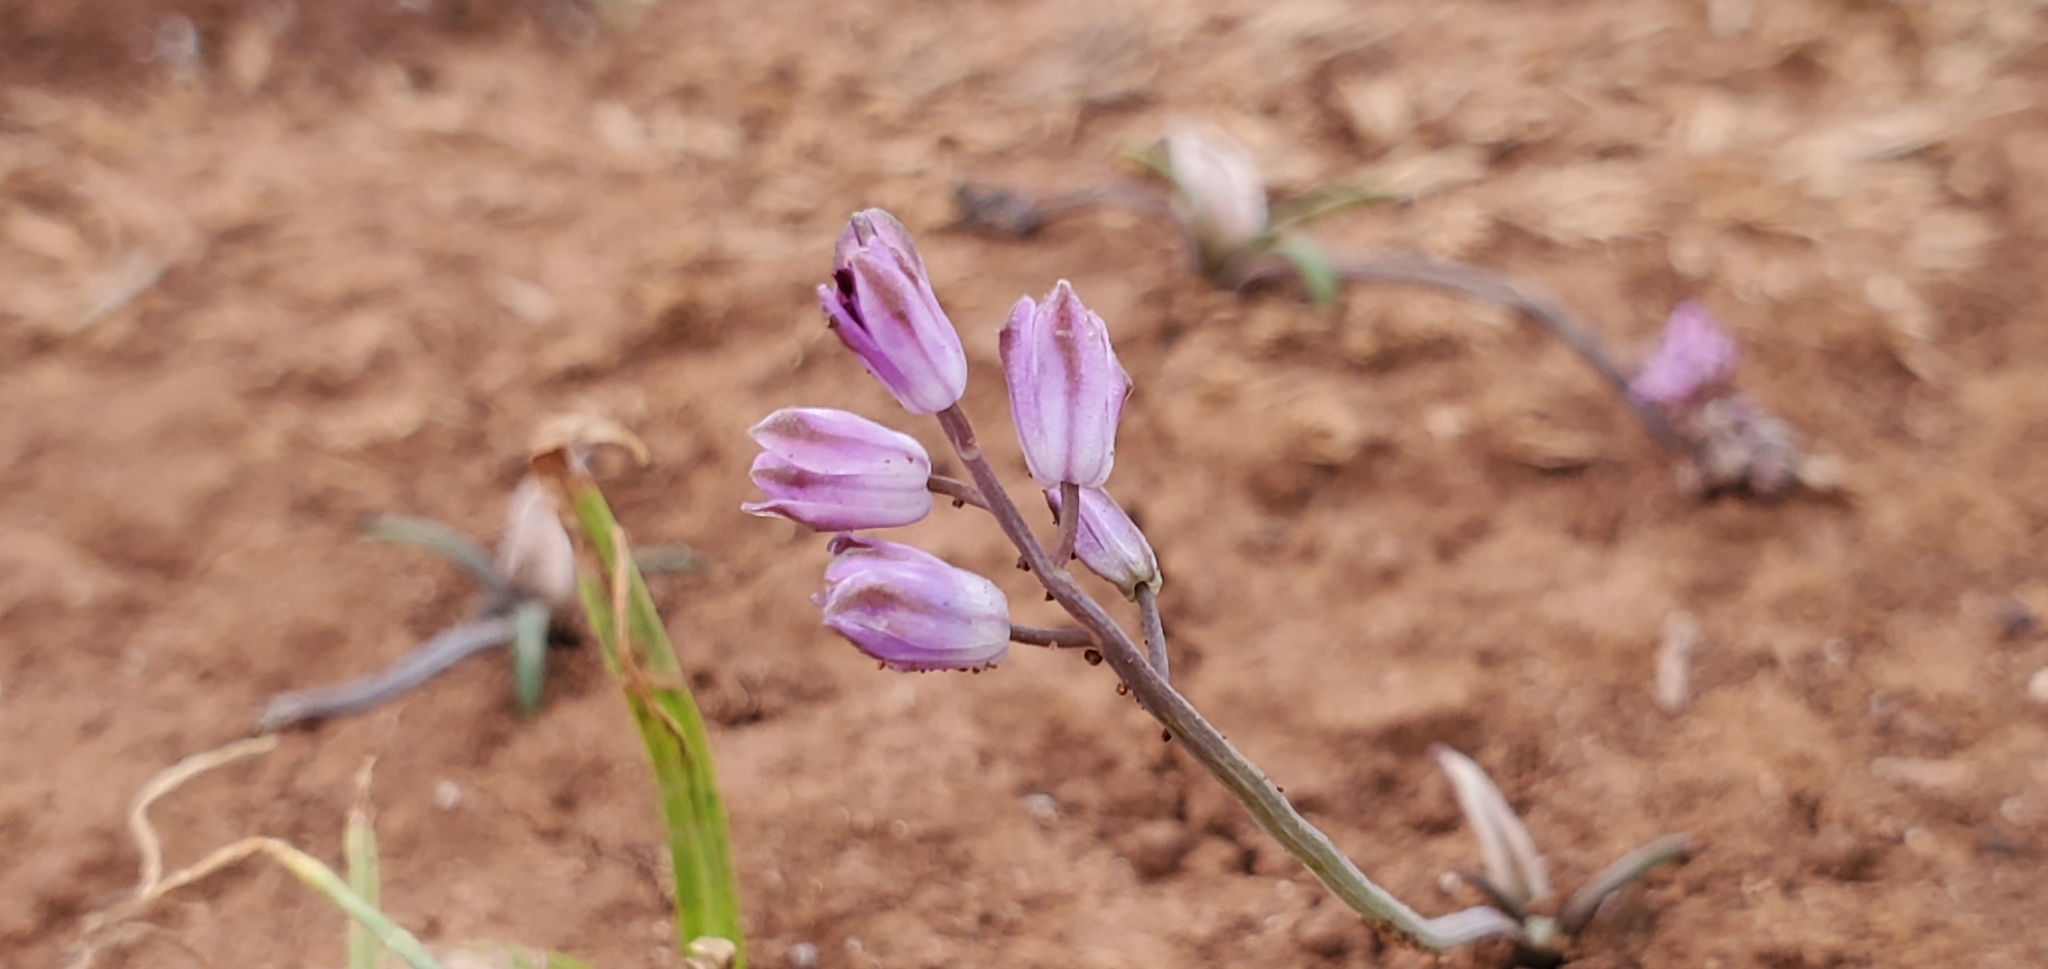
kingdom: Plantae
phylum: Tracheophyta
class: Liliopsida
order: Asparagales
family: Asparagaceae
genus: Prospero
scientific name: Prospero autumnale
